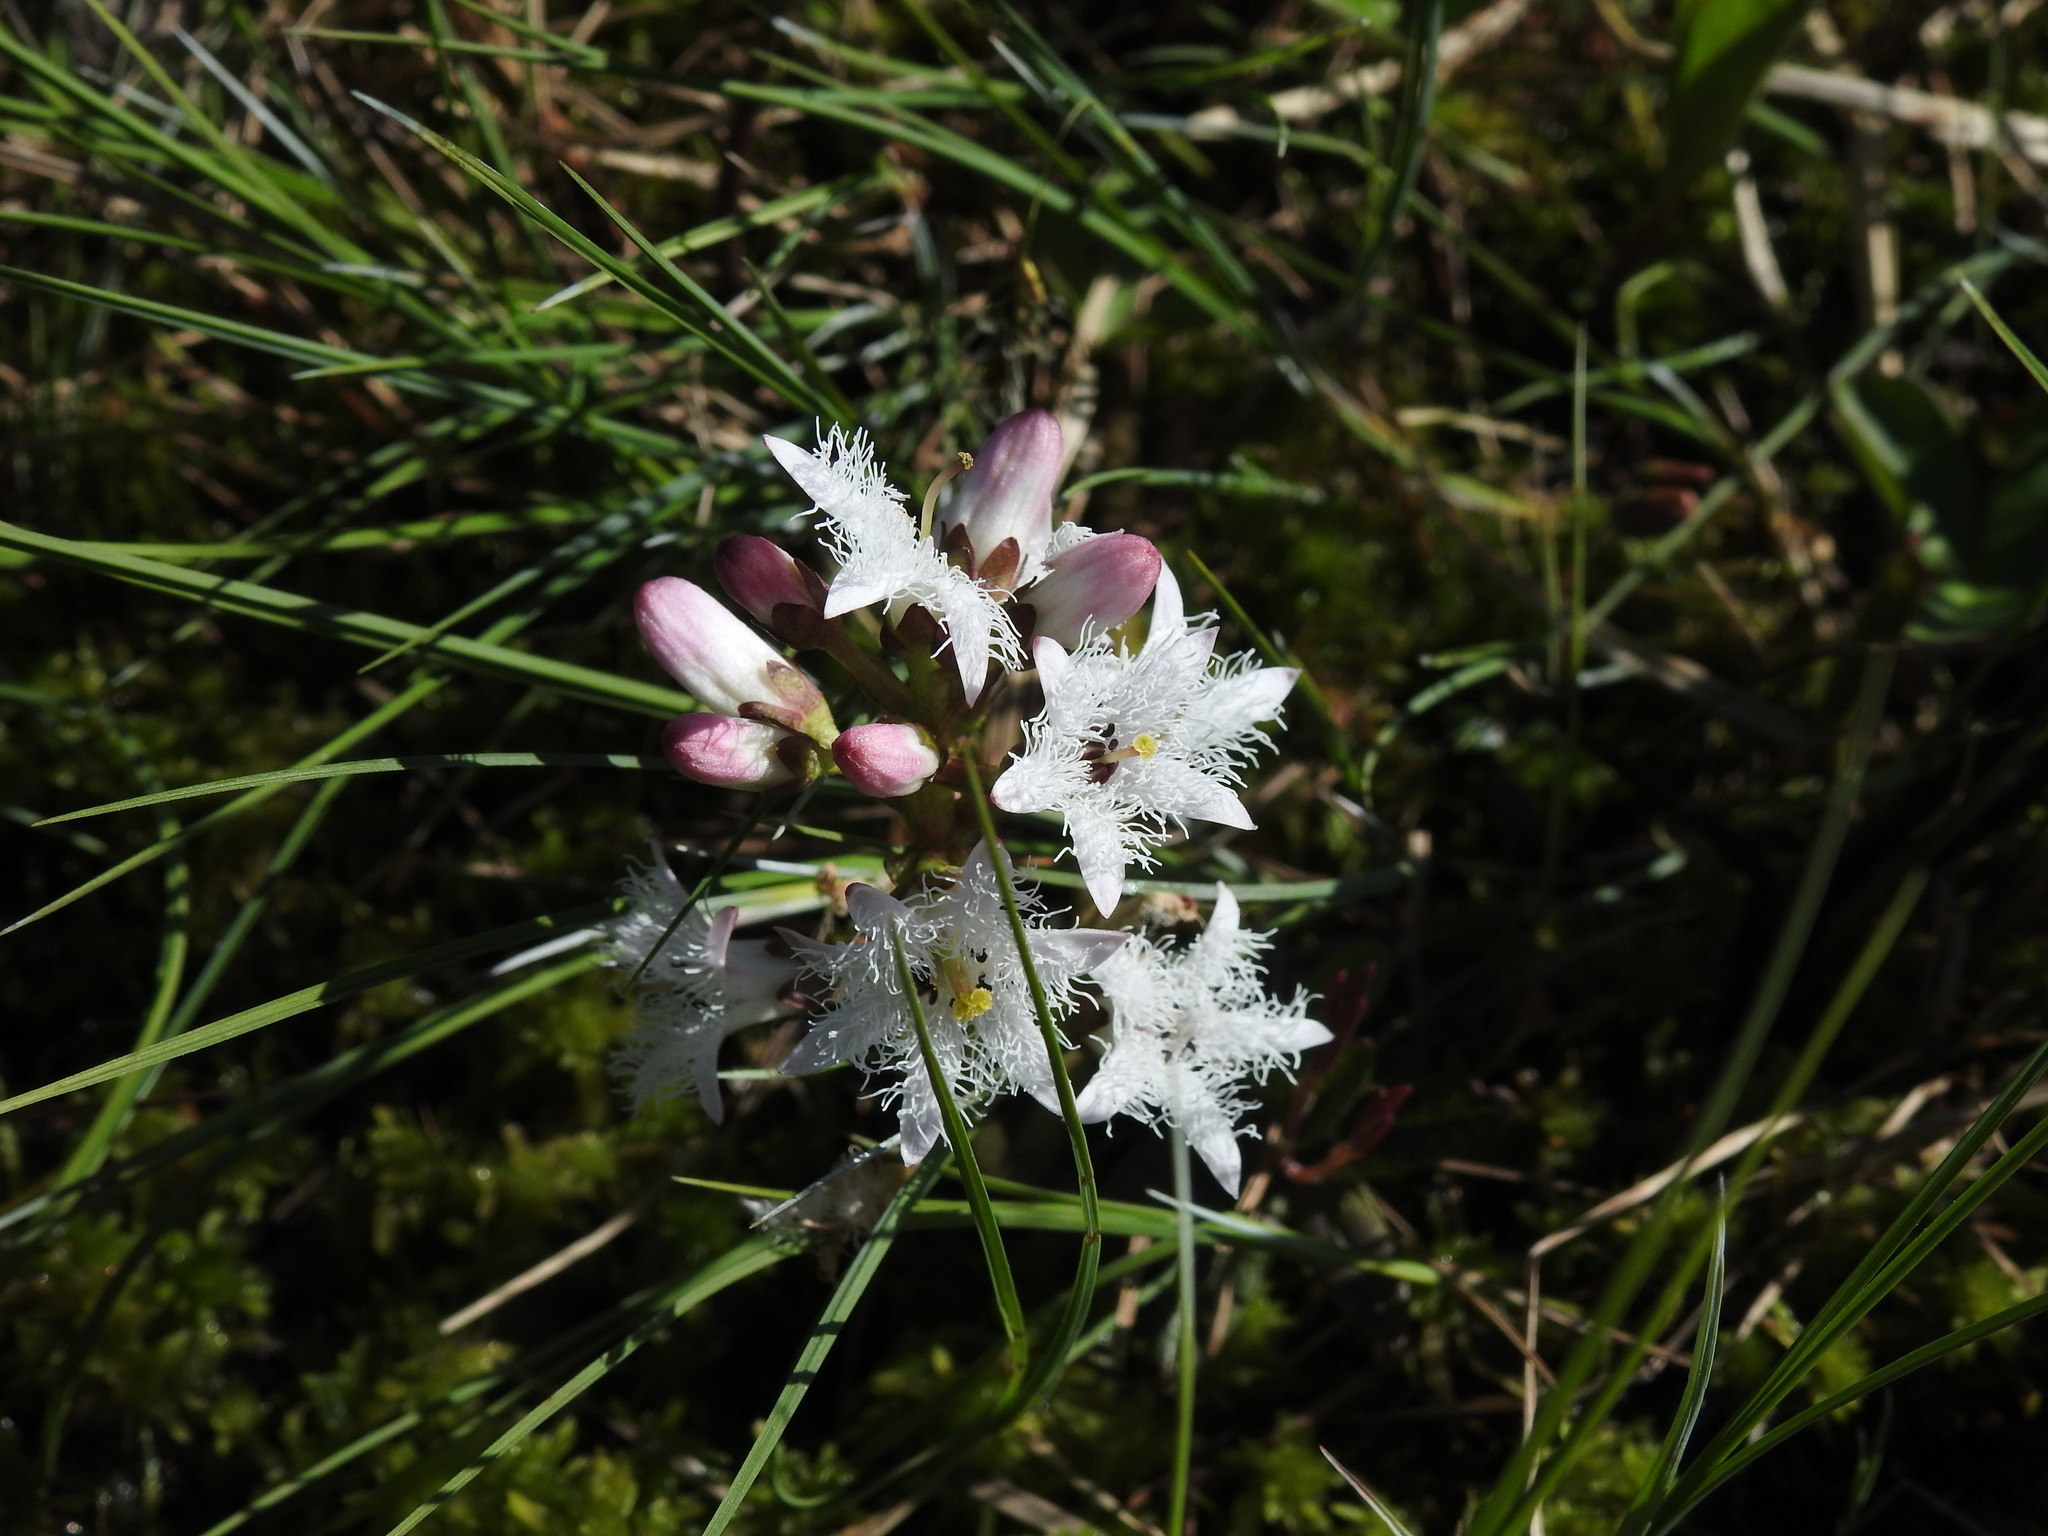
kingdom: Plantae
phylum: Tracheophyta
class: Magnoliopsida
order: Asterales
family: Menyanthaceae
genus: Menyanthes
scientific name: Menyanthes trifoliata
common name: Bogbean
